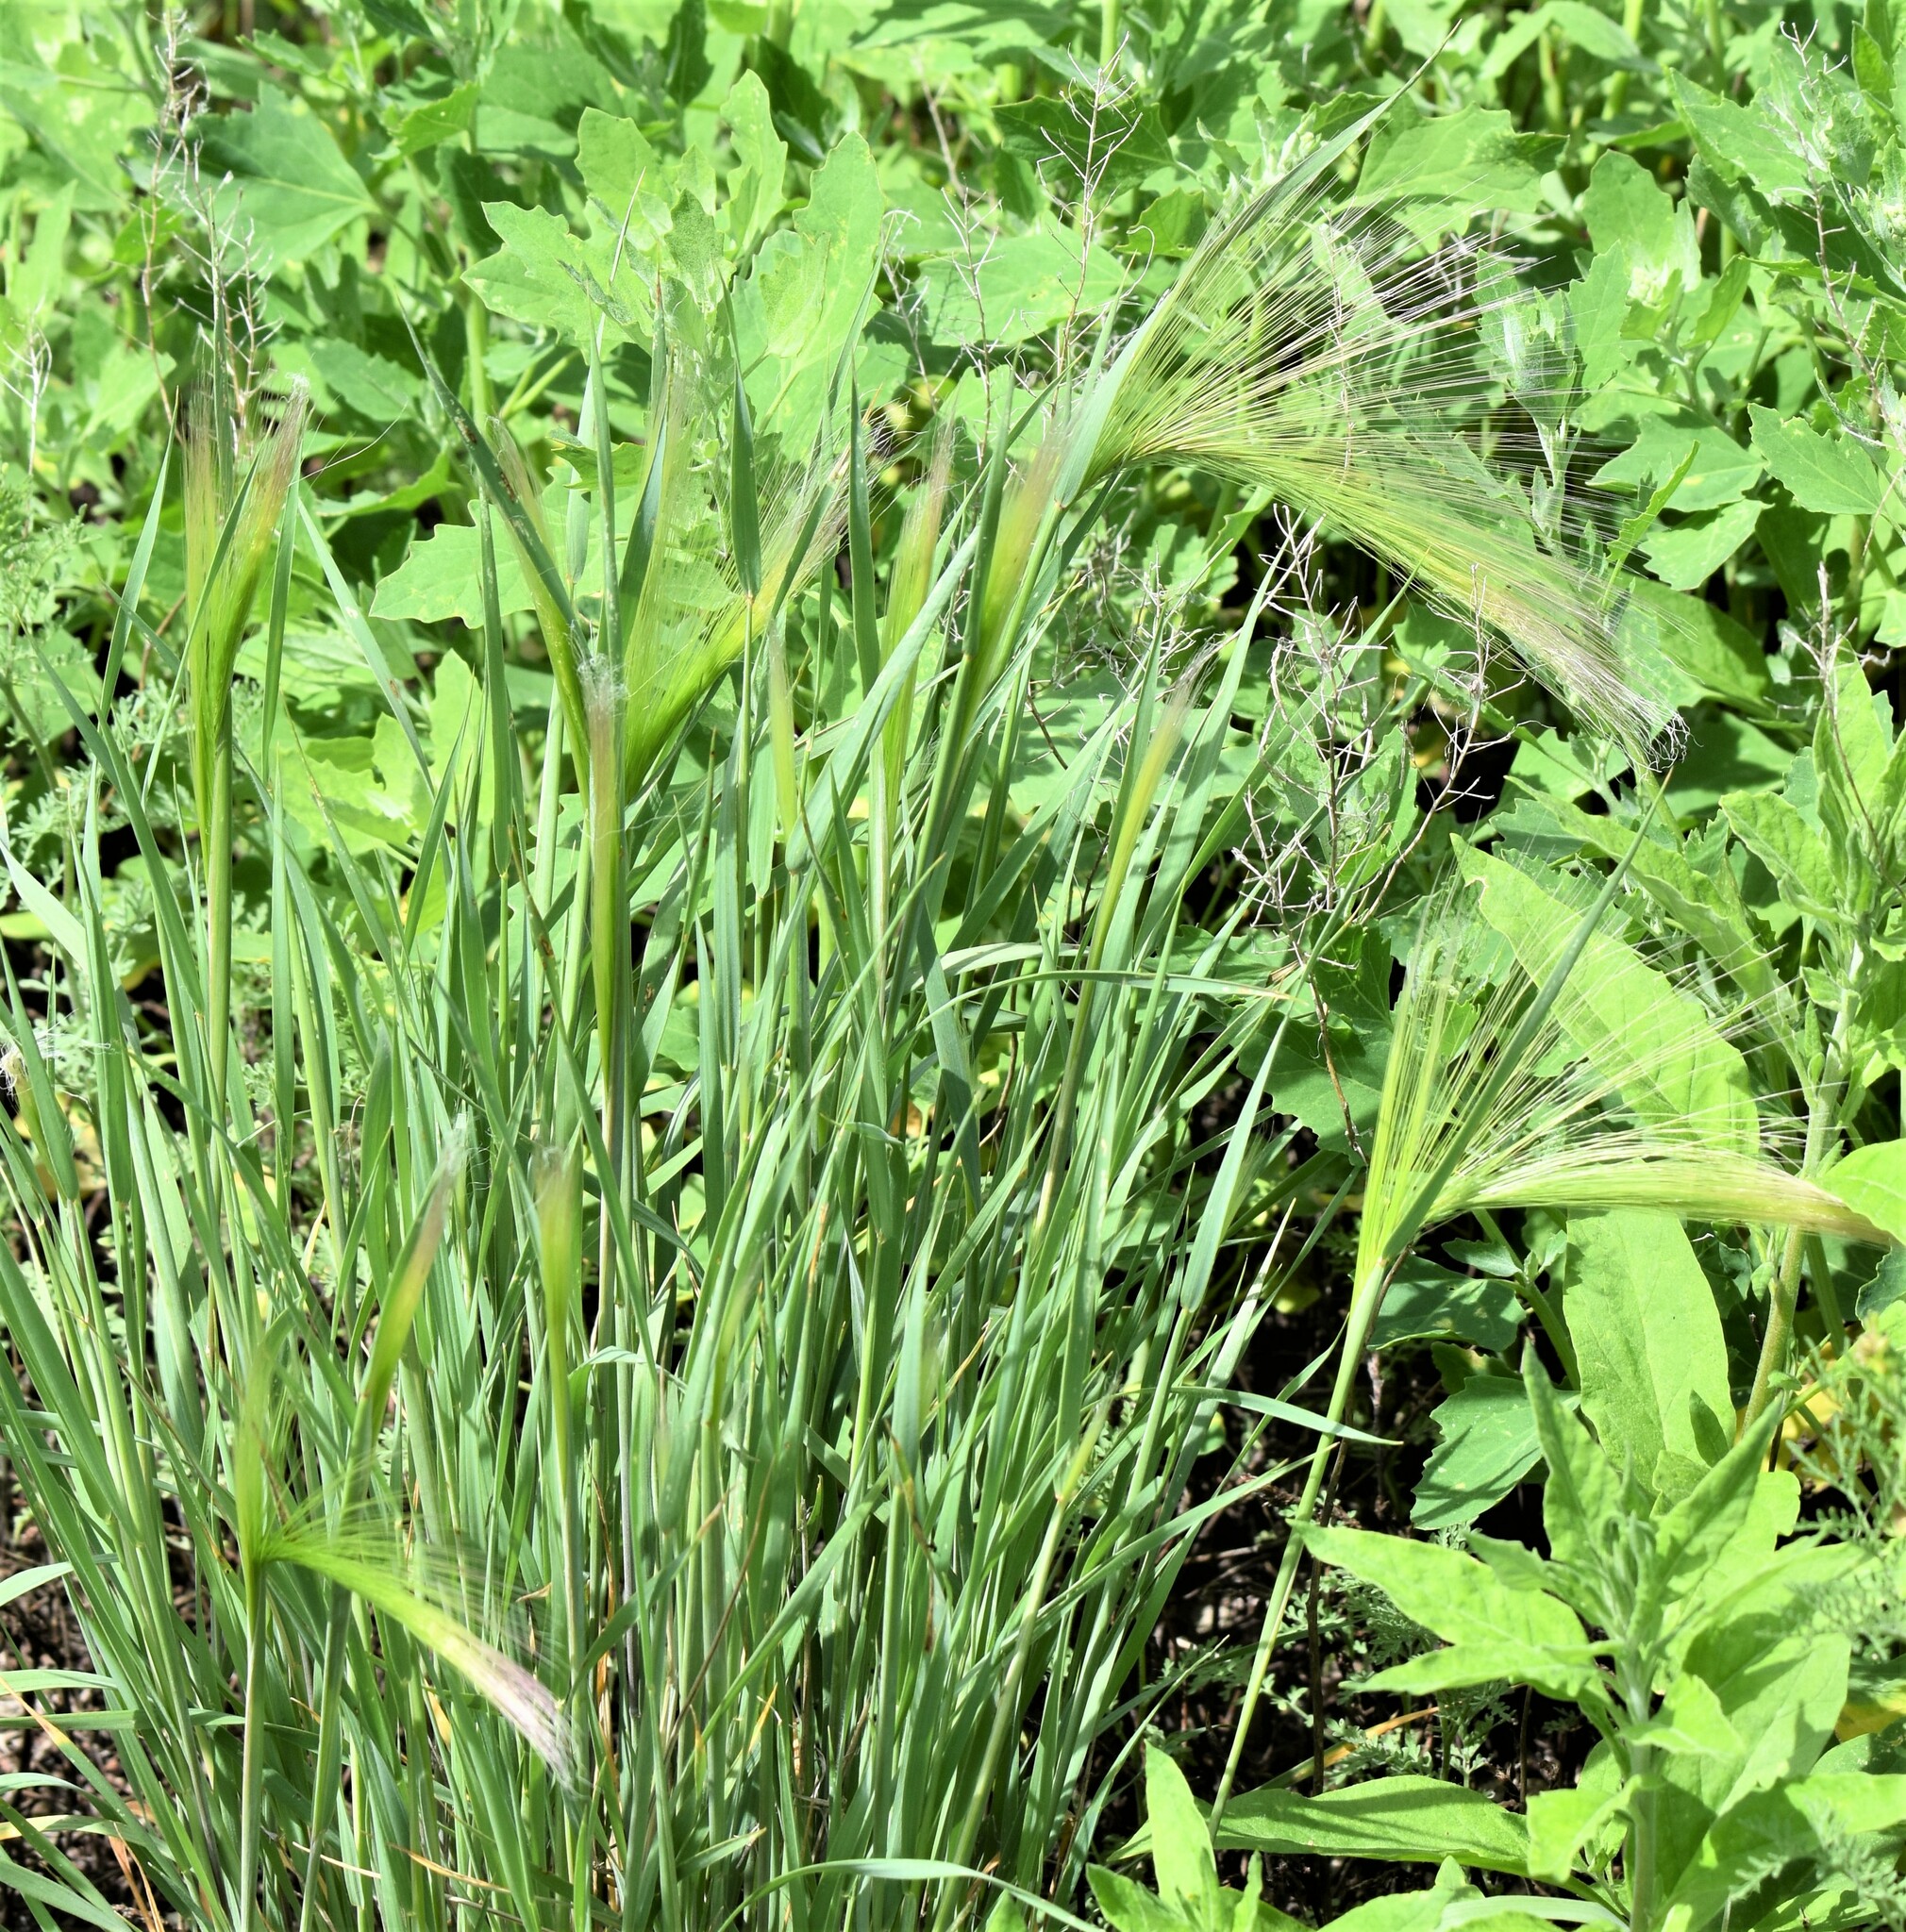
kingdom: Plantae
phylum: Tracheophyta
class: Liliopsida
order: Poales
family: Poaceae
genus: Hordeum
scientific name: Hordeum jubatum
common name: Foxtail barley
